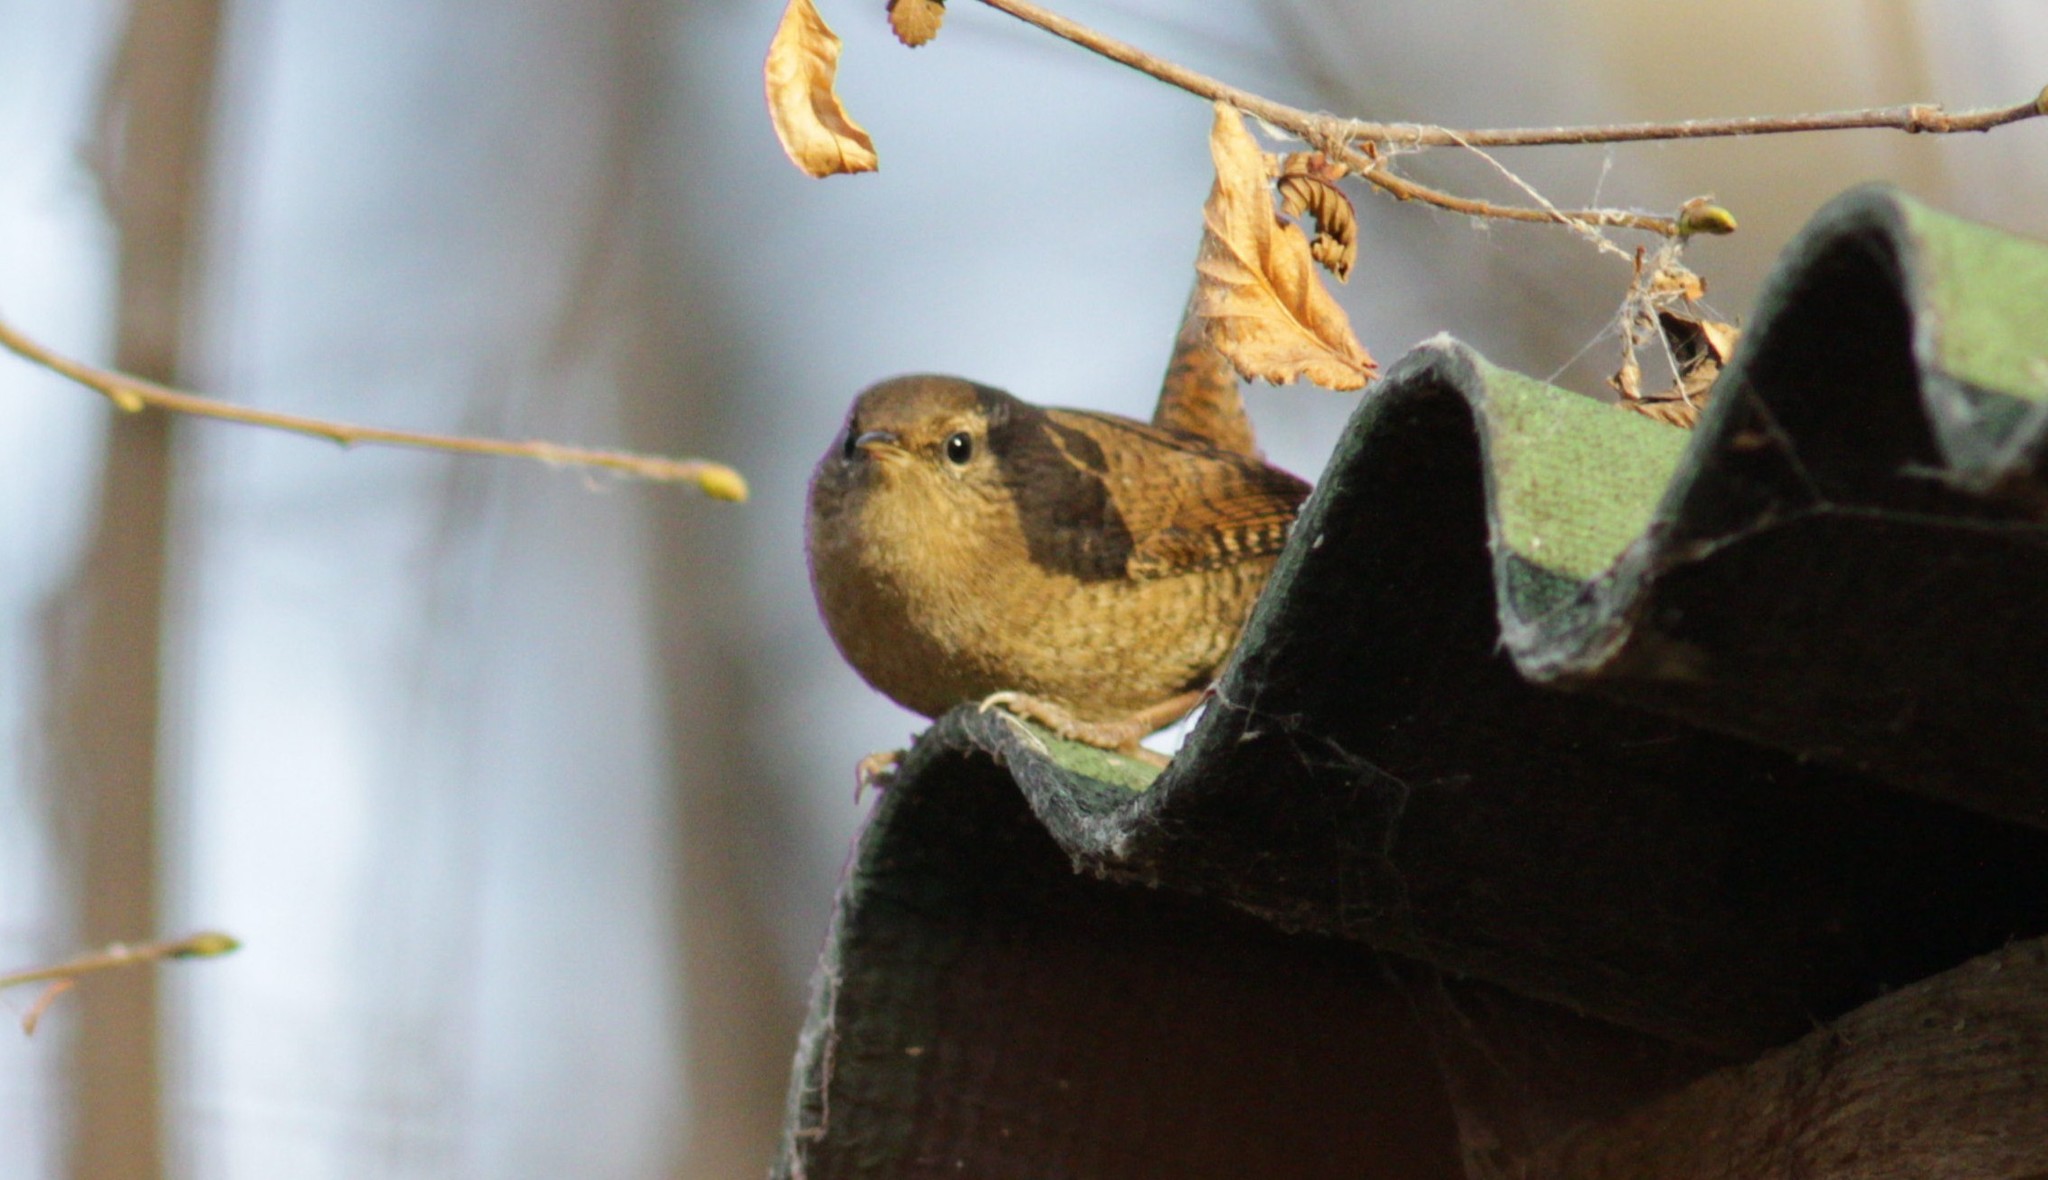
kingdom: Animalia
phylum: Chordata
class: Aves
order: Passeriformes
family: Troglodytidae
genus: Troglodytes
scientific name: Troglodytes troglodytes
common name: Eurasian wren
